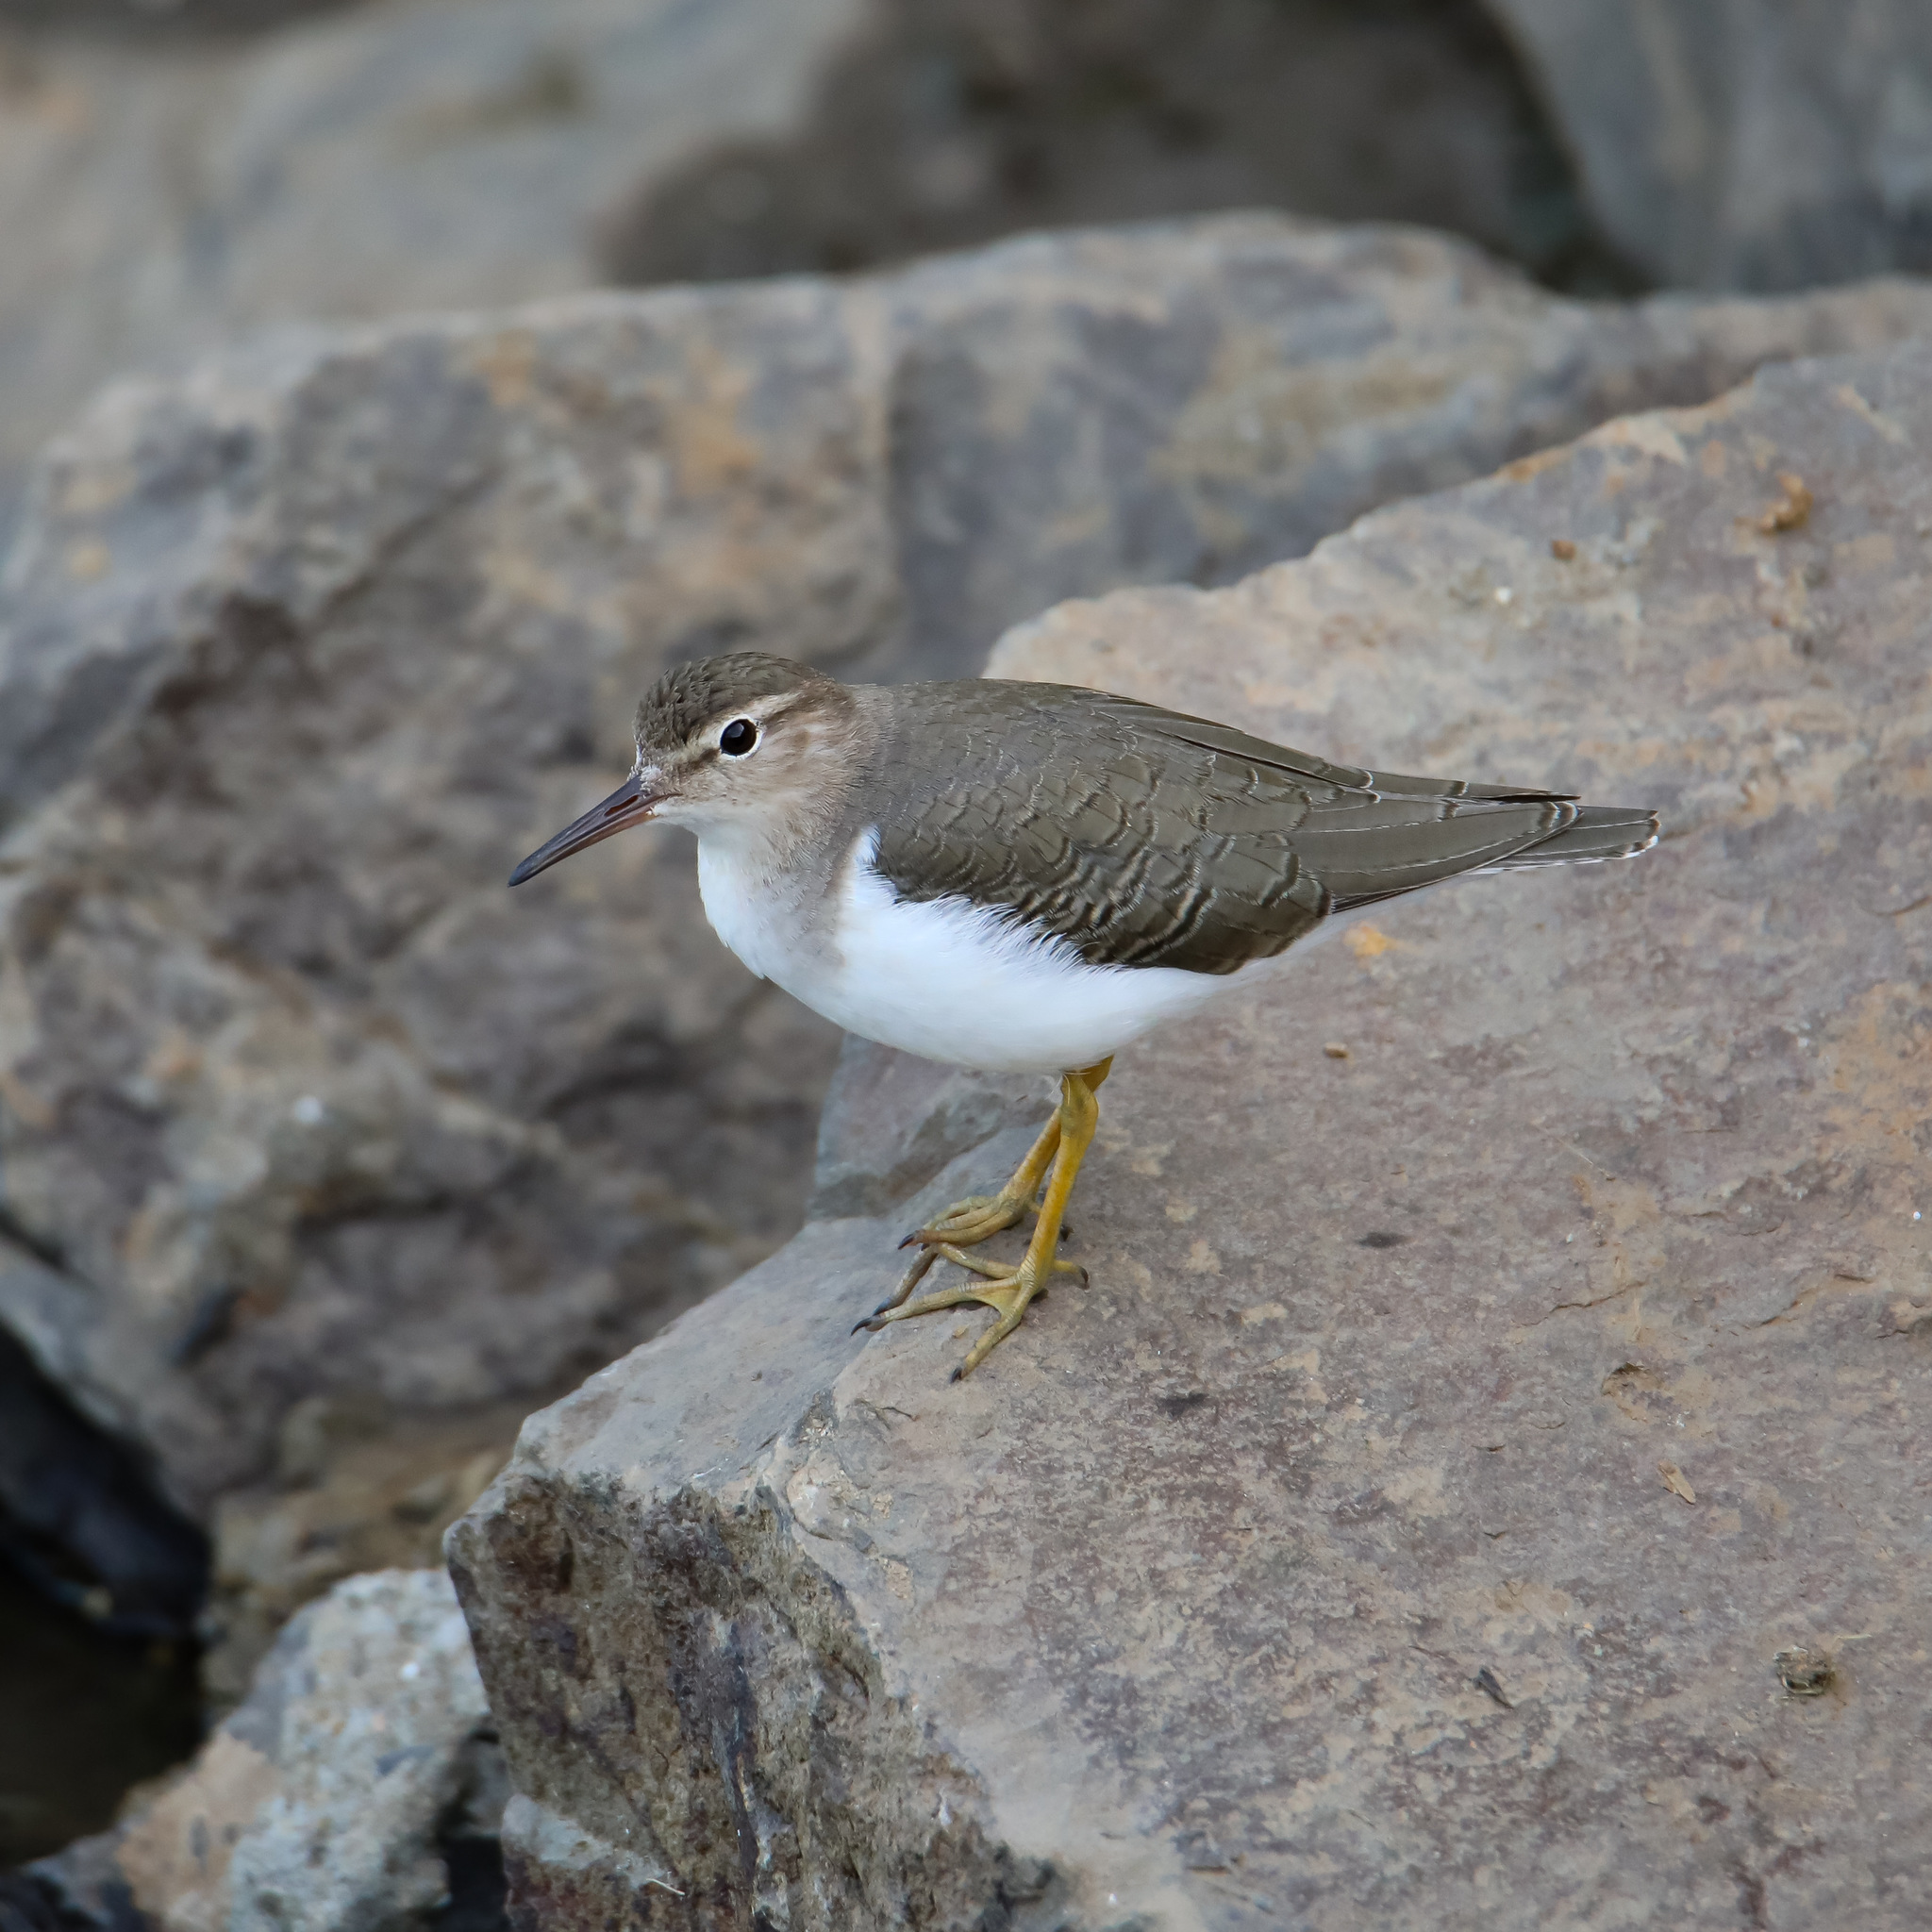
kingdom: Animalia
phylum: Chordata
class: Aves
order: Charadriiformes
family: Scolopacidae
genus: Actitis
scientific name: Actitis macularius
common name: Spotted sandpiper
